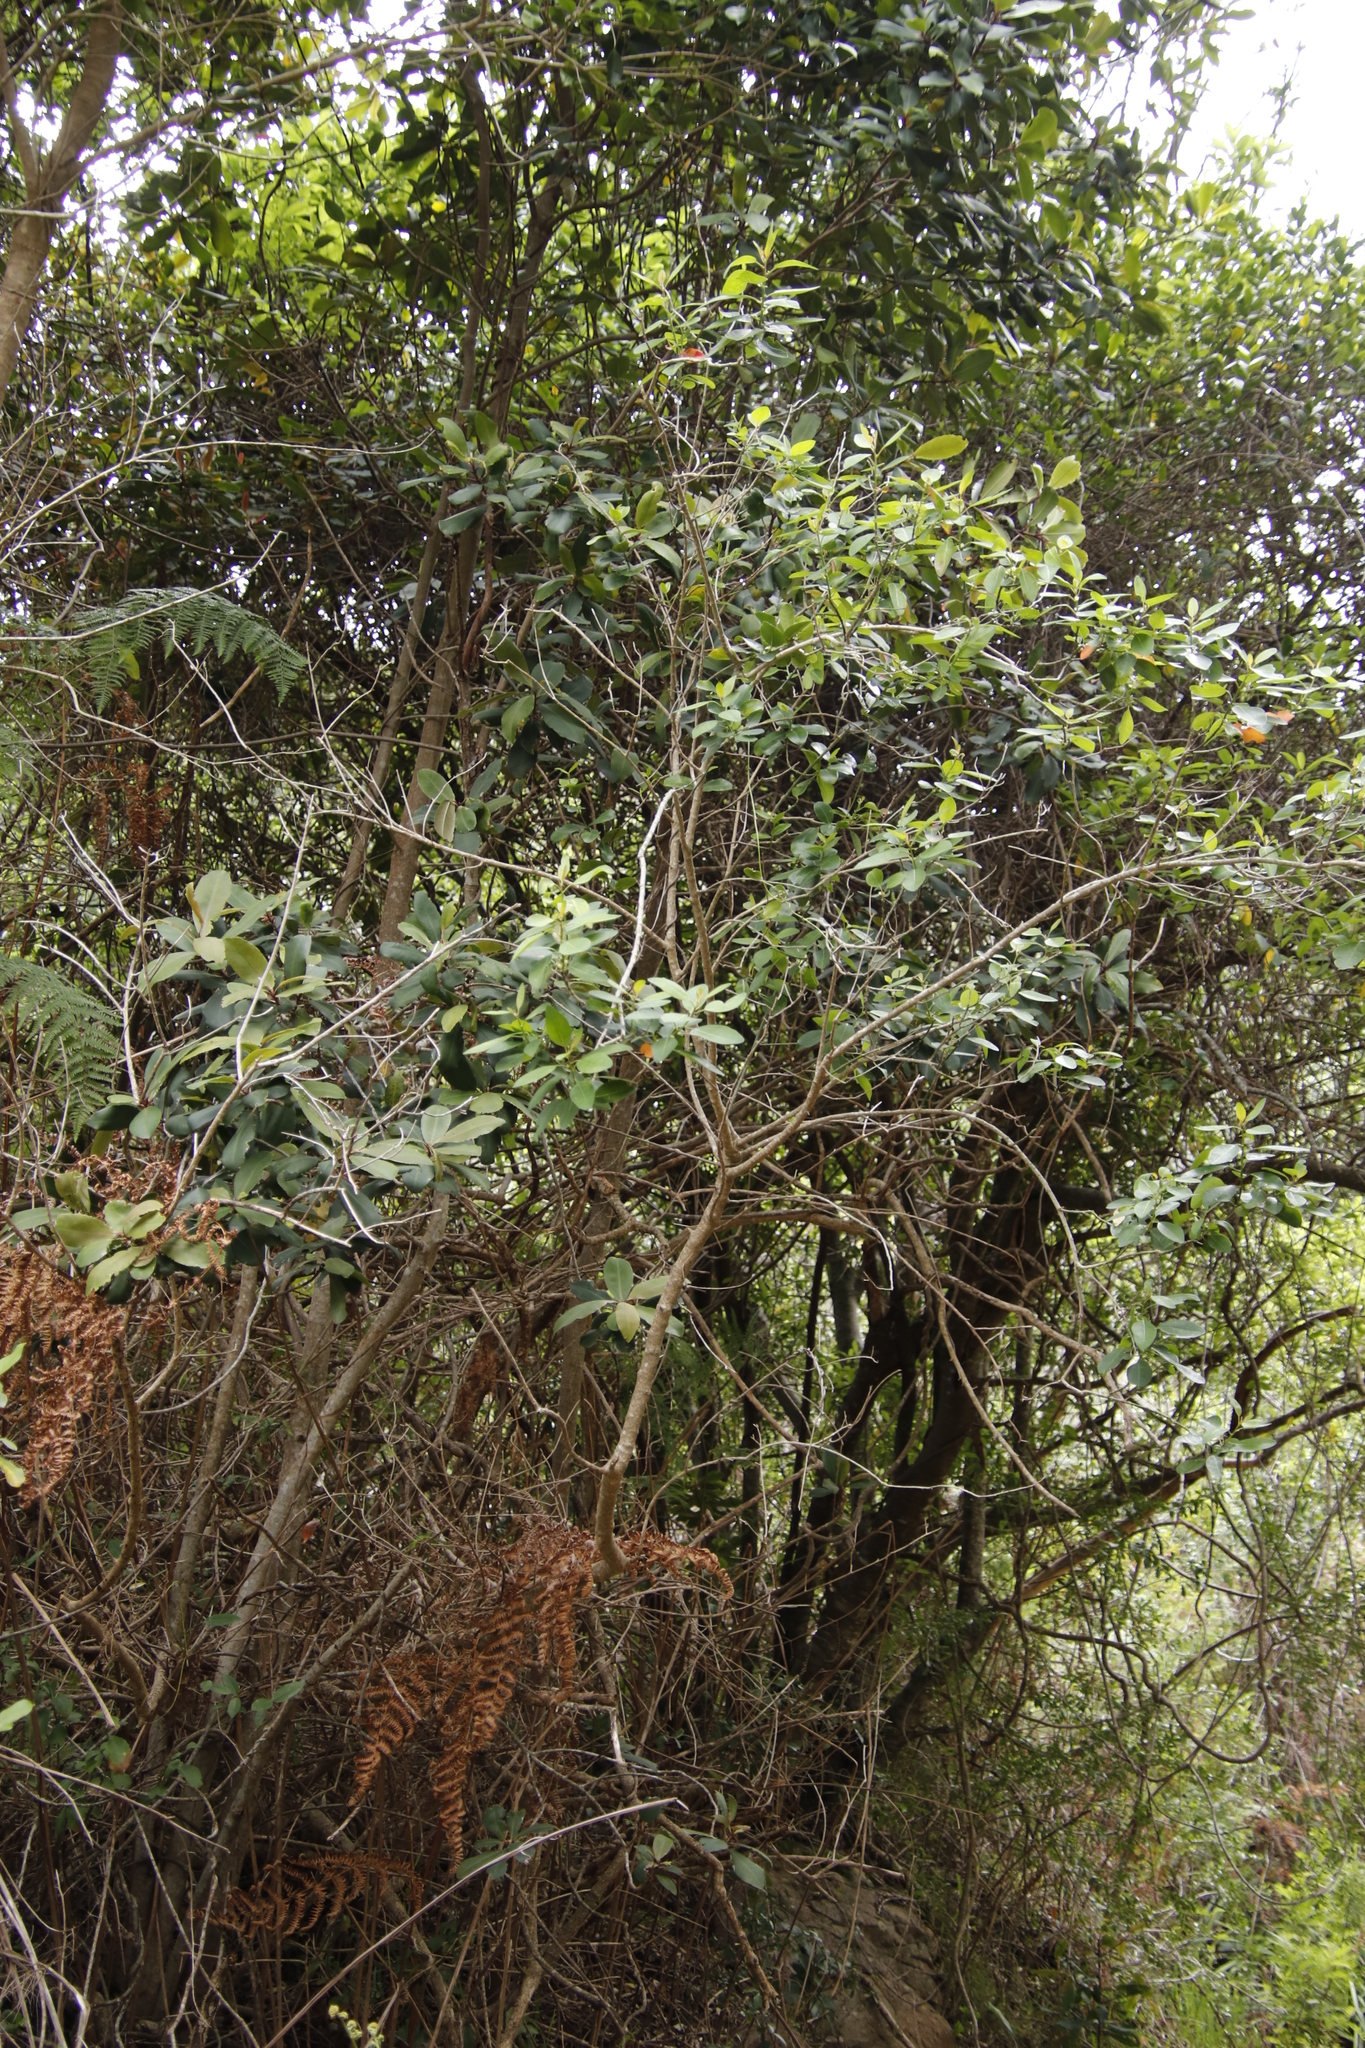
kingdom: Plantae
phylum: Tracheophyta
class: Magnoliopsida
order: Ericales
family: Primulaceae
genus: Myrsine
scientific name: Myrsine melanophloeos
